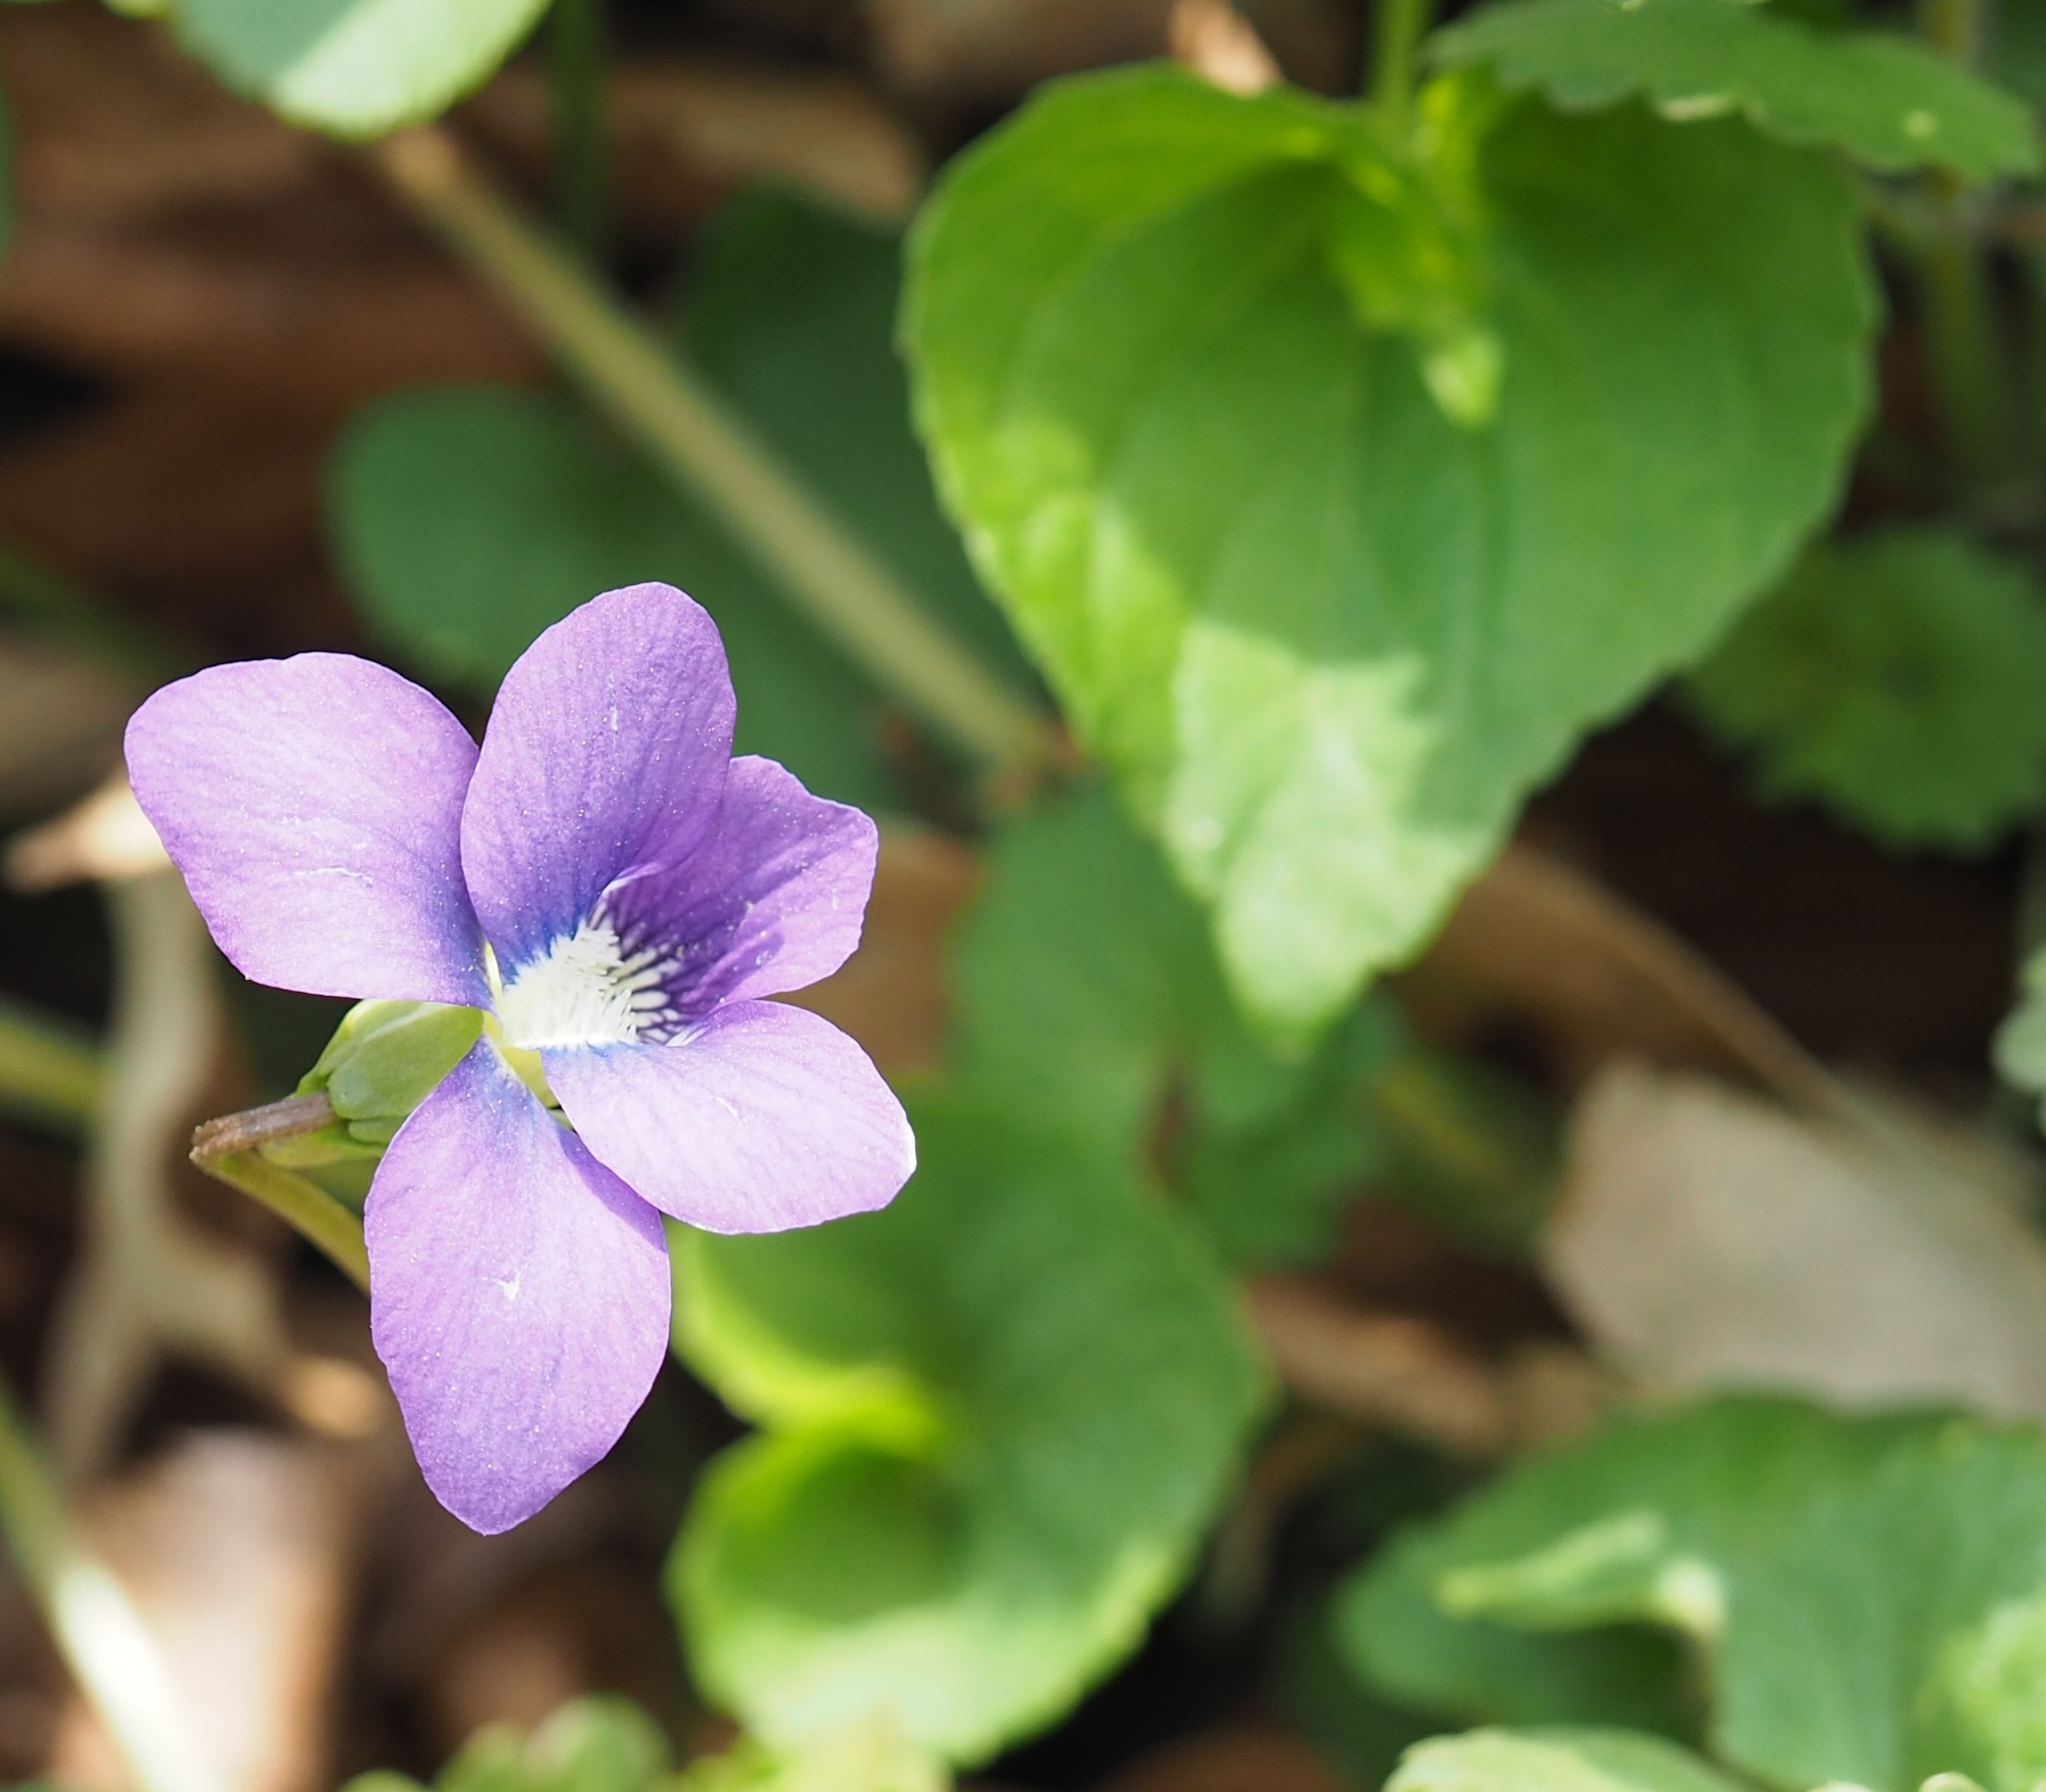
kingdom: Plantae
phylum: Tracheophyta
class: Magnoliopsida
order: Malpighiales
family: Violaceae
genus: Viola
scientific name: Viola sororia
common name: Dooryard violet
